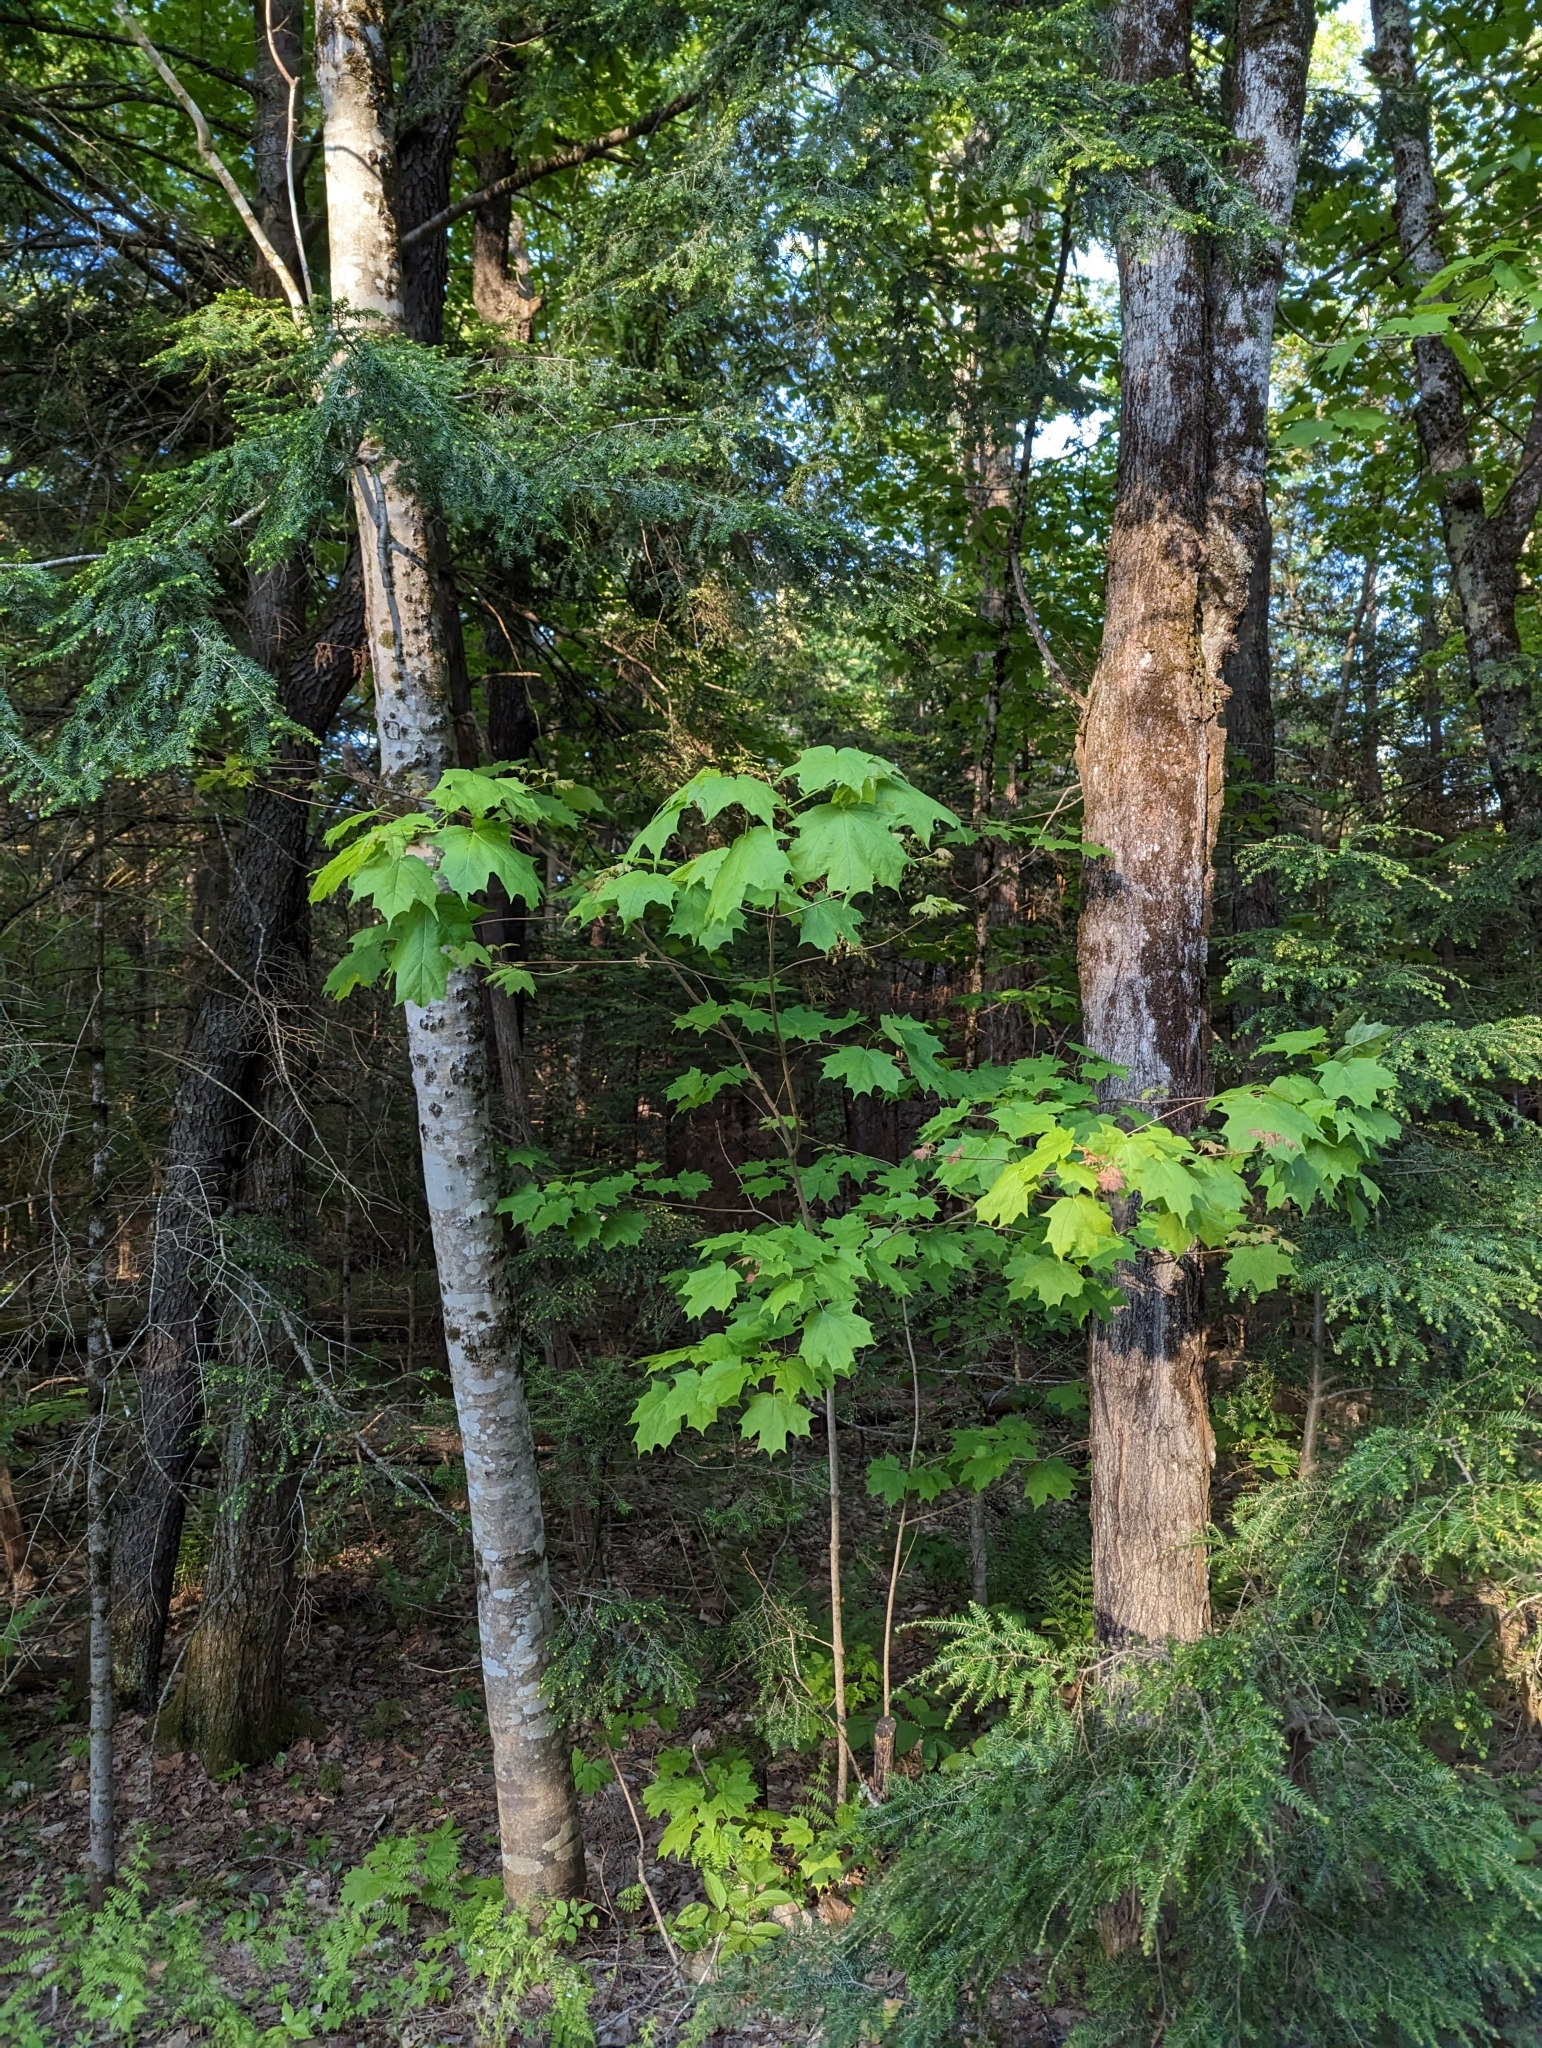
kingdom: Plantae
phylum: Tracheophyta
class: Magnoliopsida
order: Sapindales
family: Sapindaceae
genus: Acer
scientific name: Acer saccharum
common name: Sugar maple
